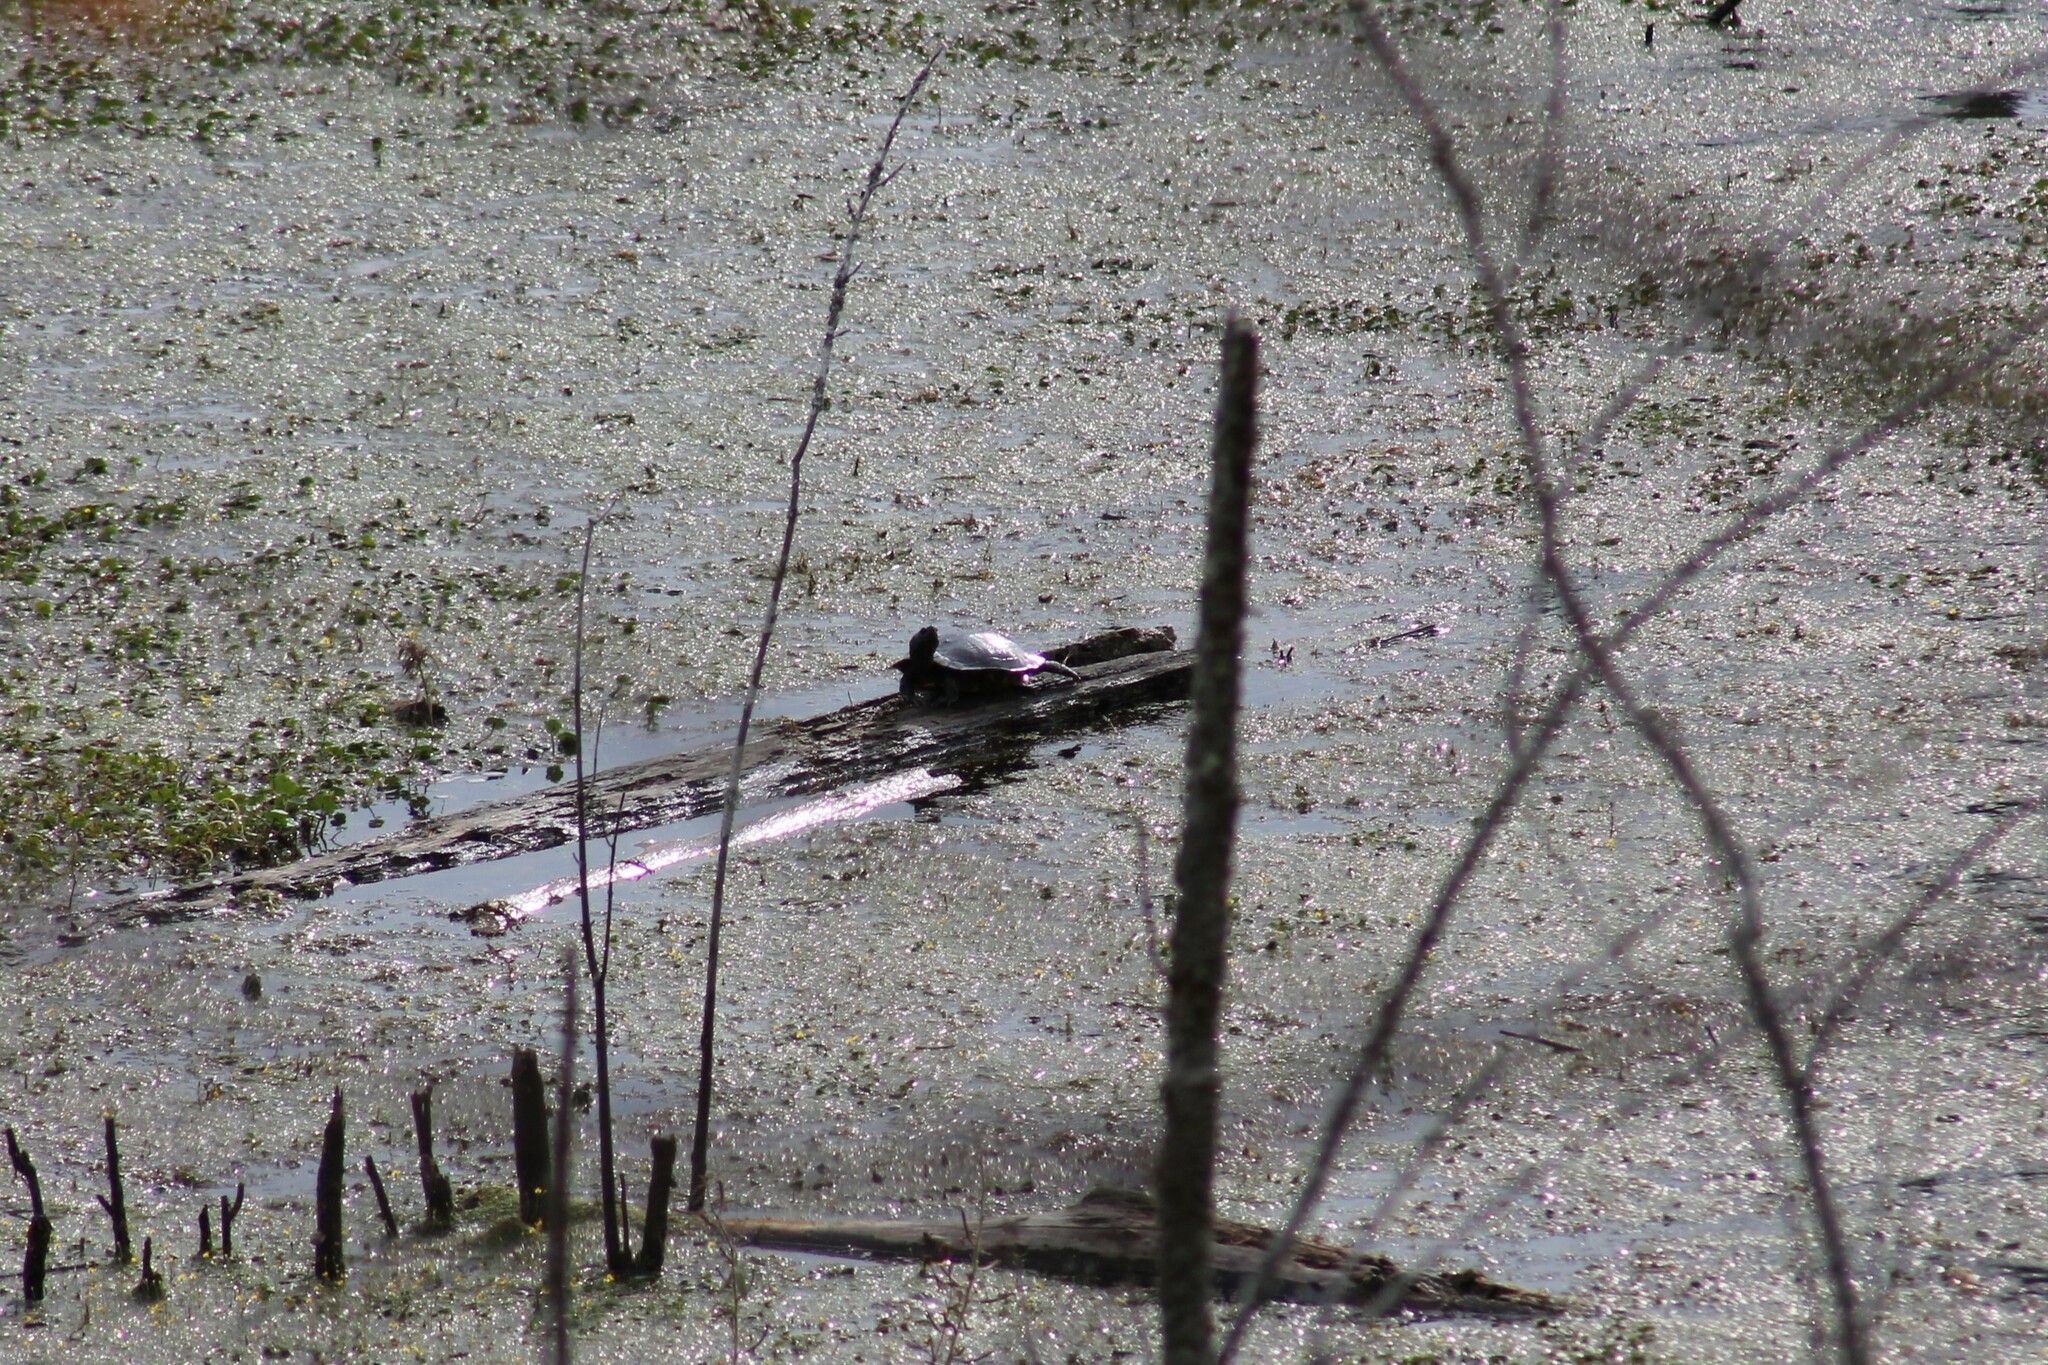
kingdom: Animalia
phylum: Chordata
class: Testudines
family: Emydidae
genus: Trachemys
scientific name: Trachemys scripta
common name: Slider
